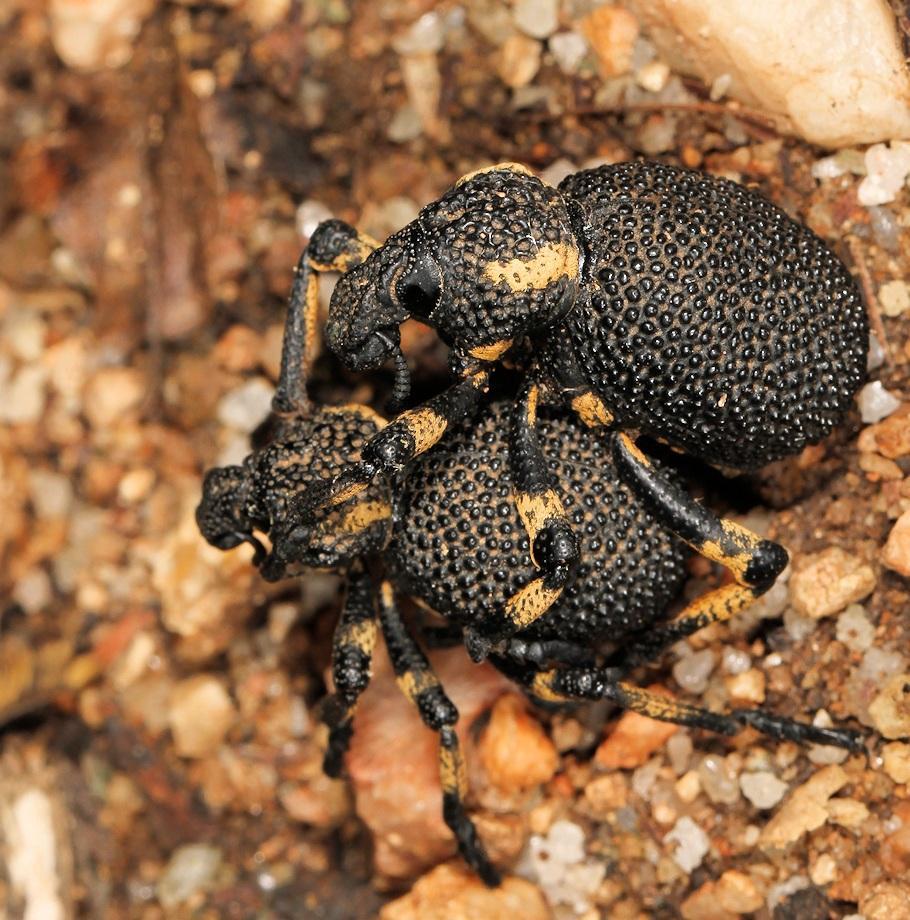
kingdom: Animalia
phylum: Arthropoda
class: Insecta
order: Coleoptera
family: Brachyceridae
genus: Brachycerus
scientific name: Brachycerus congestus
